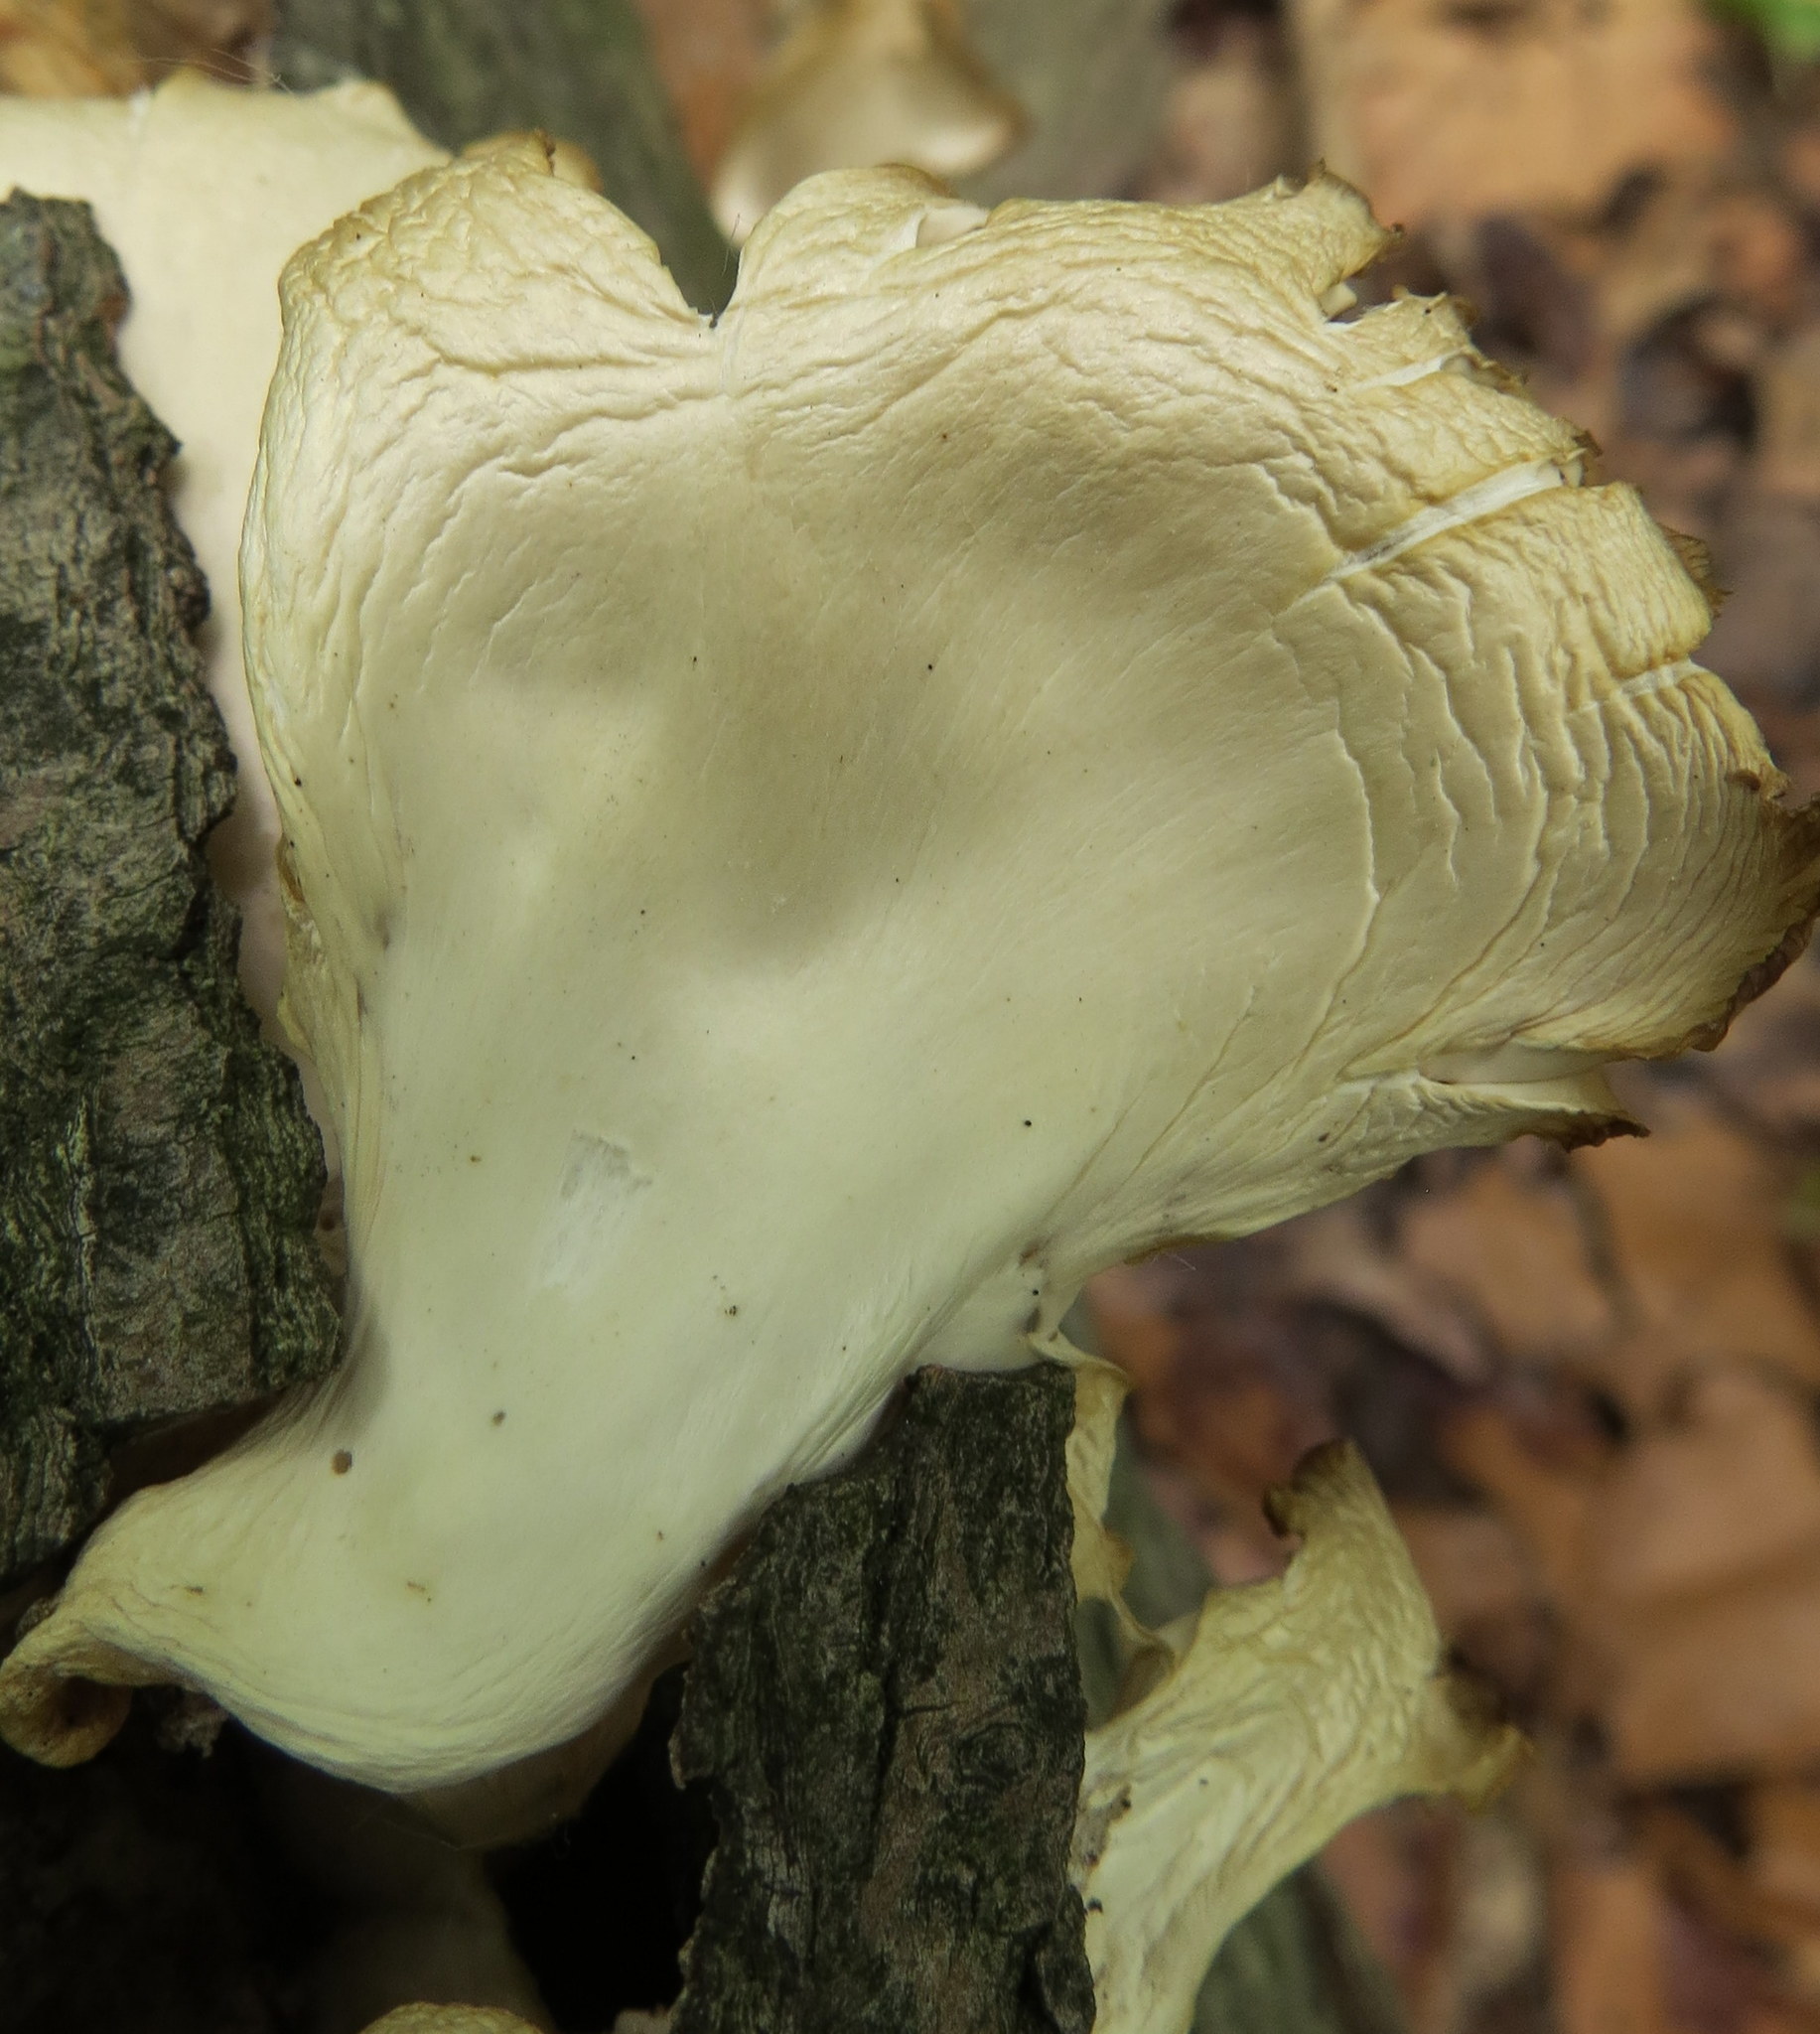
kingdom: Fungi
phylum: Basidiomycota
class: Agaricomycetes
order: Agaricales
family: Pleurotaceae
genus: Pleurotus
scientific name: Pleurotus pulmonarius
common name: Pale oyster
